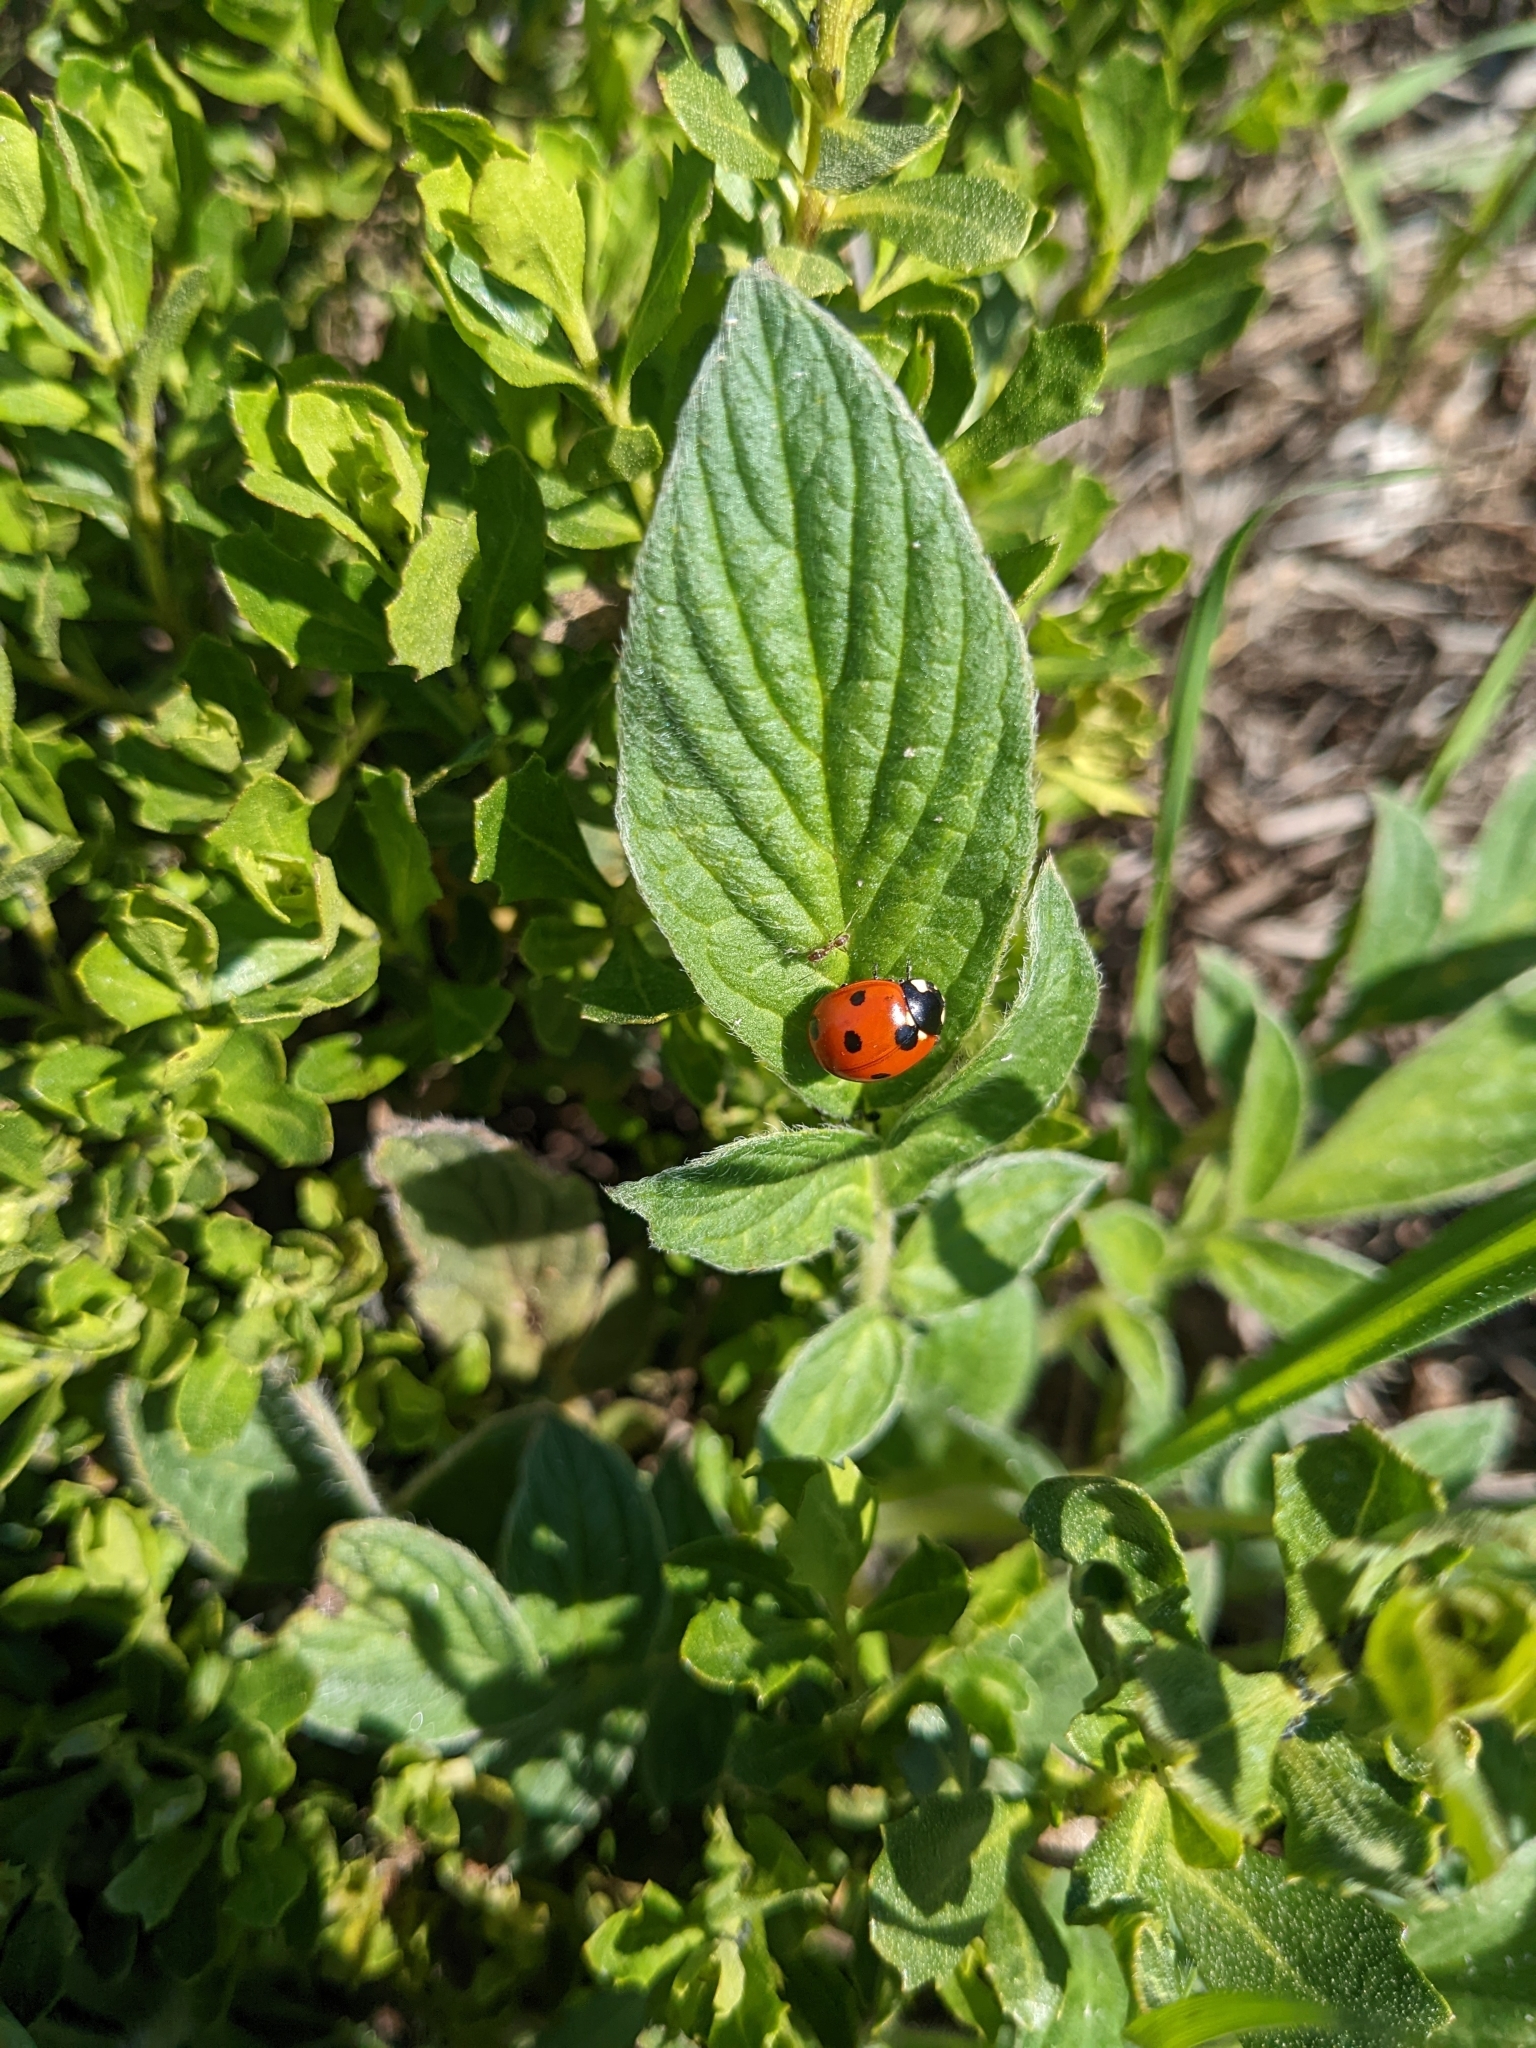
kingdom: Animalia
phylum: Arthropoda
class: Insecta
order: Coleoptera
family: Coccinellidae
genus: Coccinella
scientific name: Coccinella septempunctata
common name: Sevenspotted lady beetle
